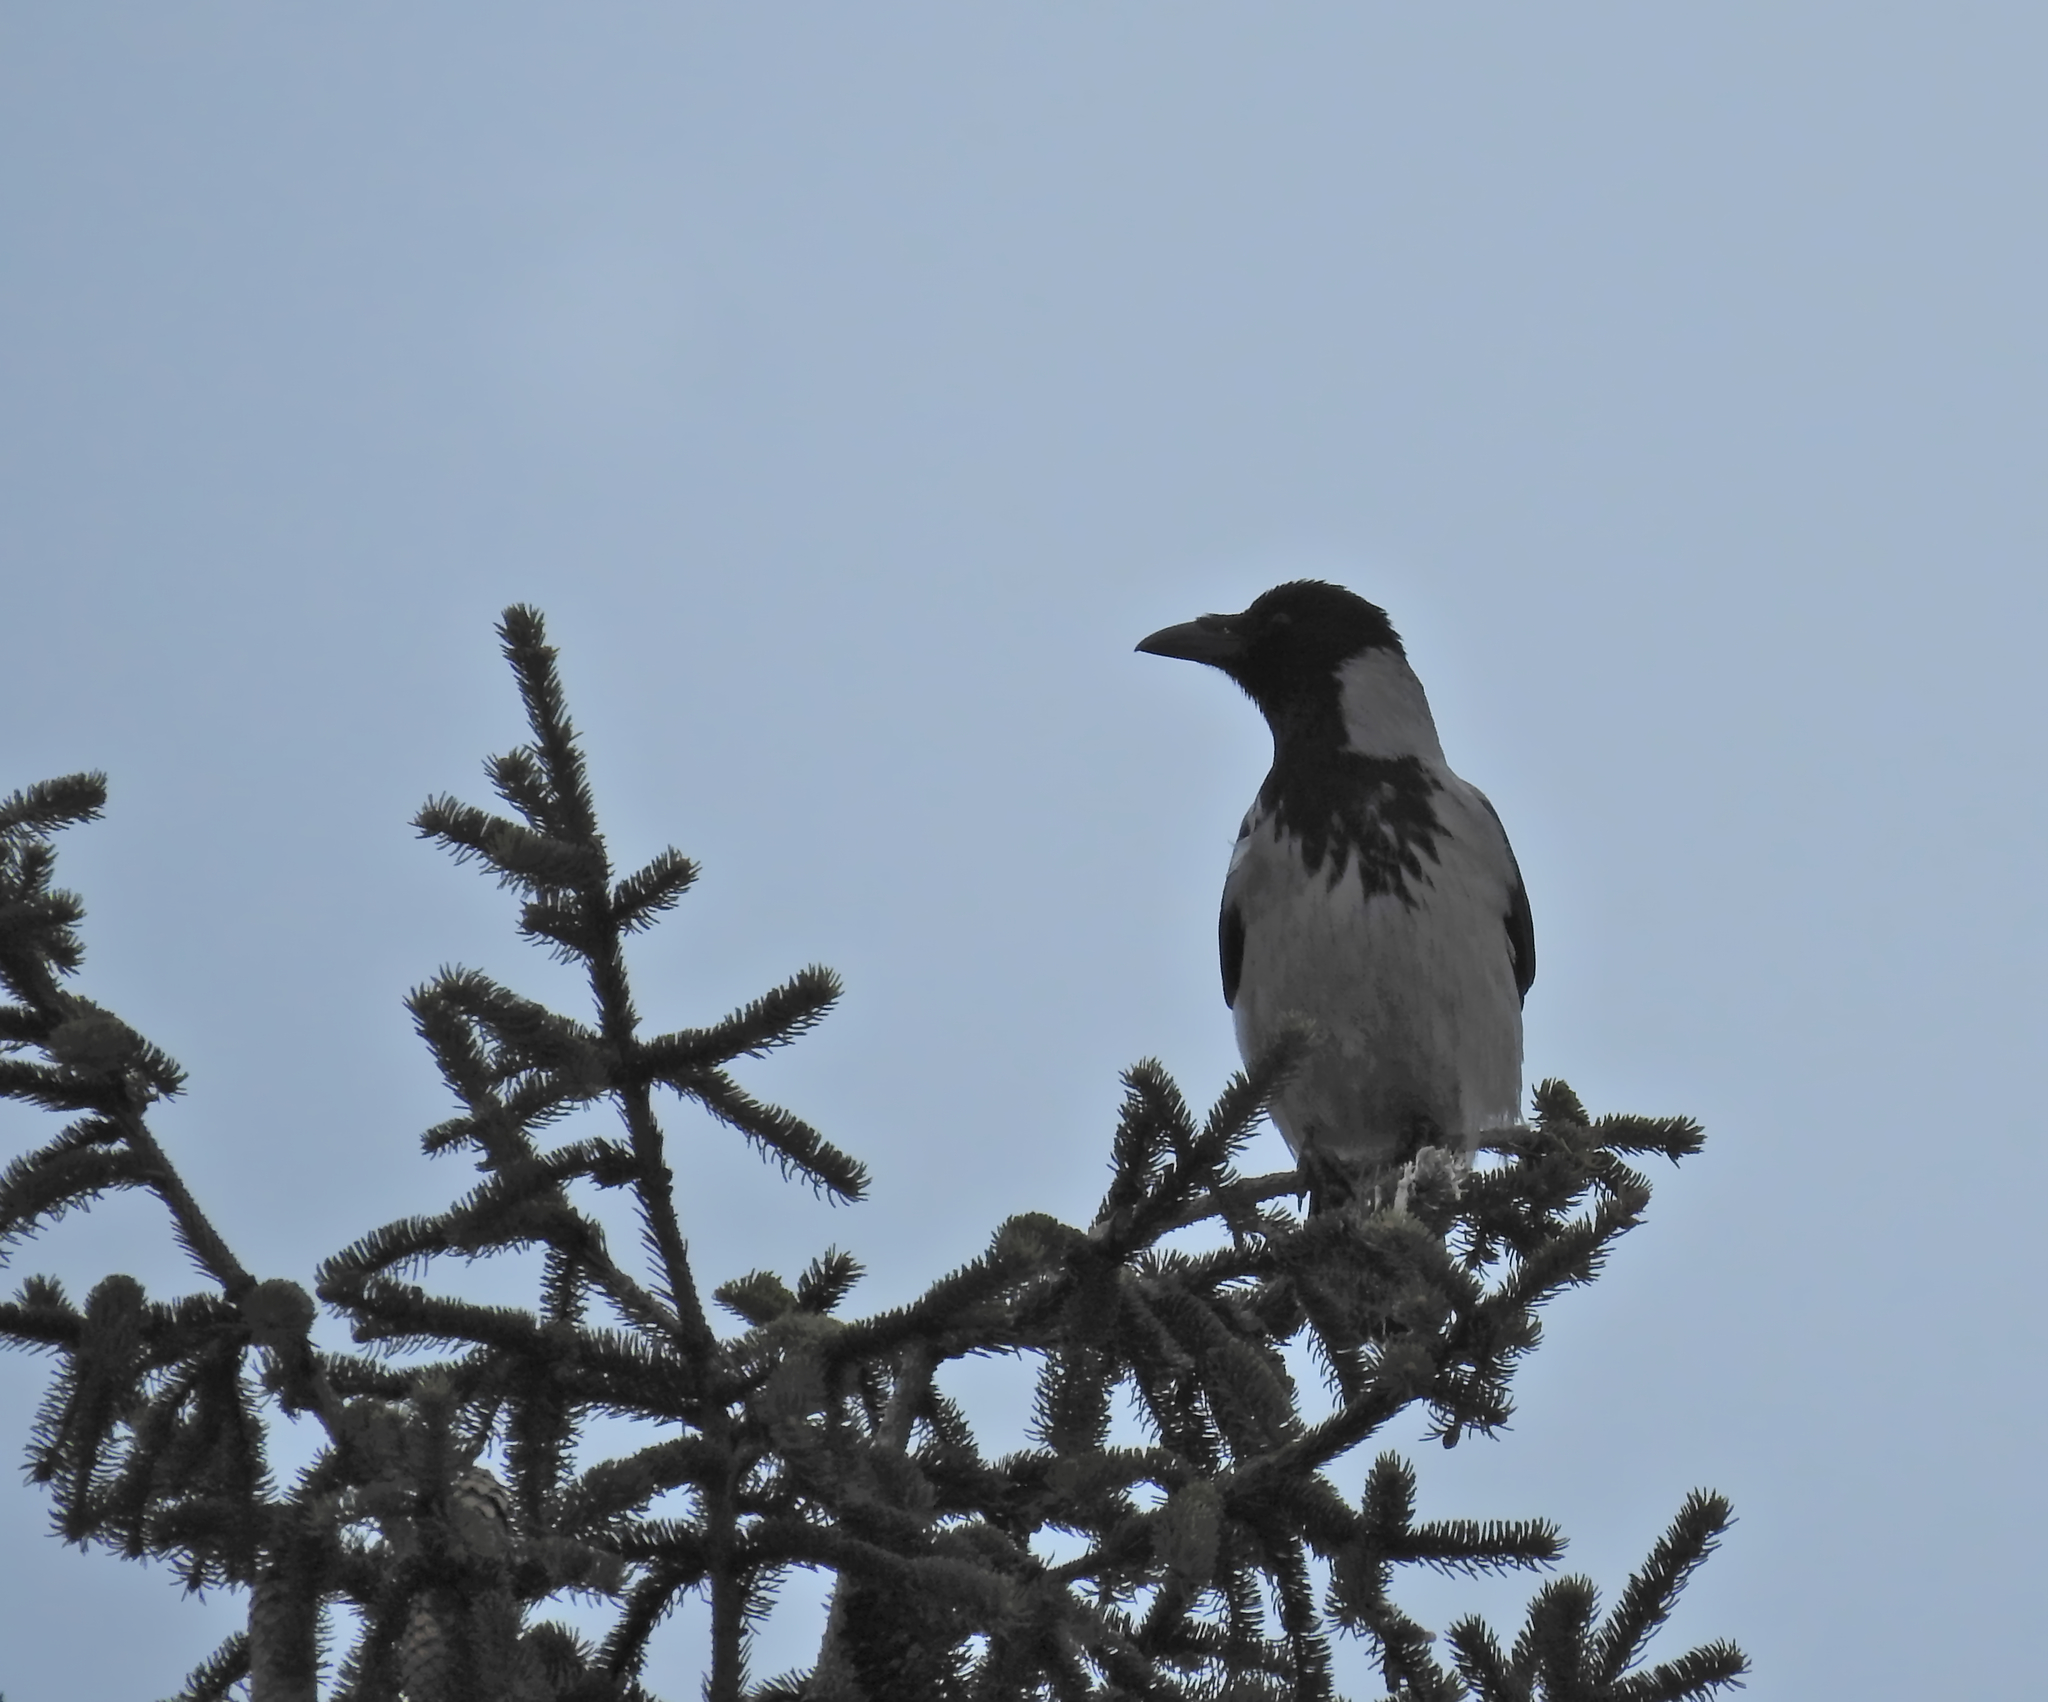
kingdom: Animalia
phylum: Chordata
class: Aves
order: Passeriformes
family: Corvidae
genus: Corvus
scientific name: Corvus cornix
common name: Hooded crow
